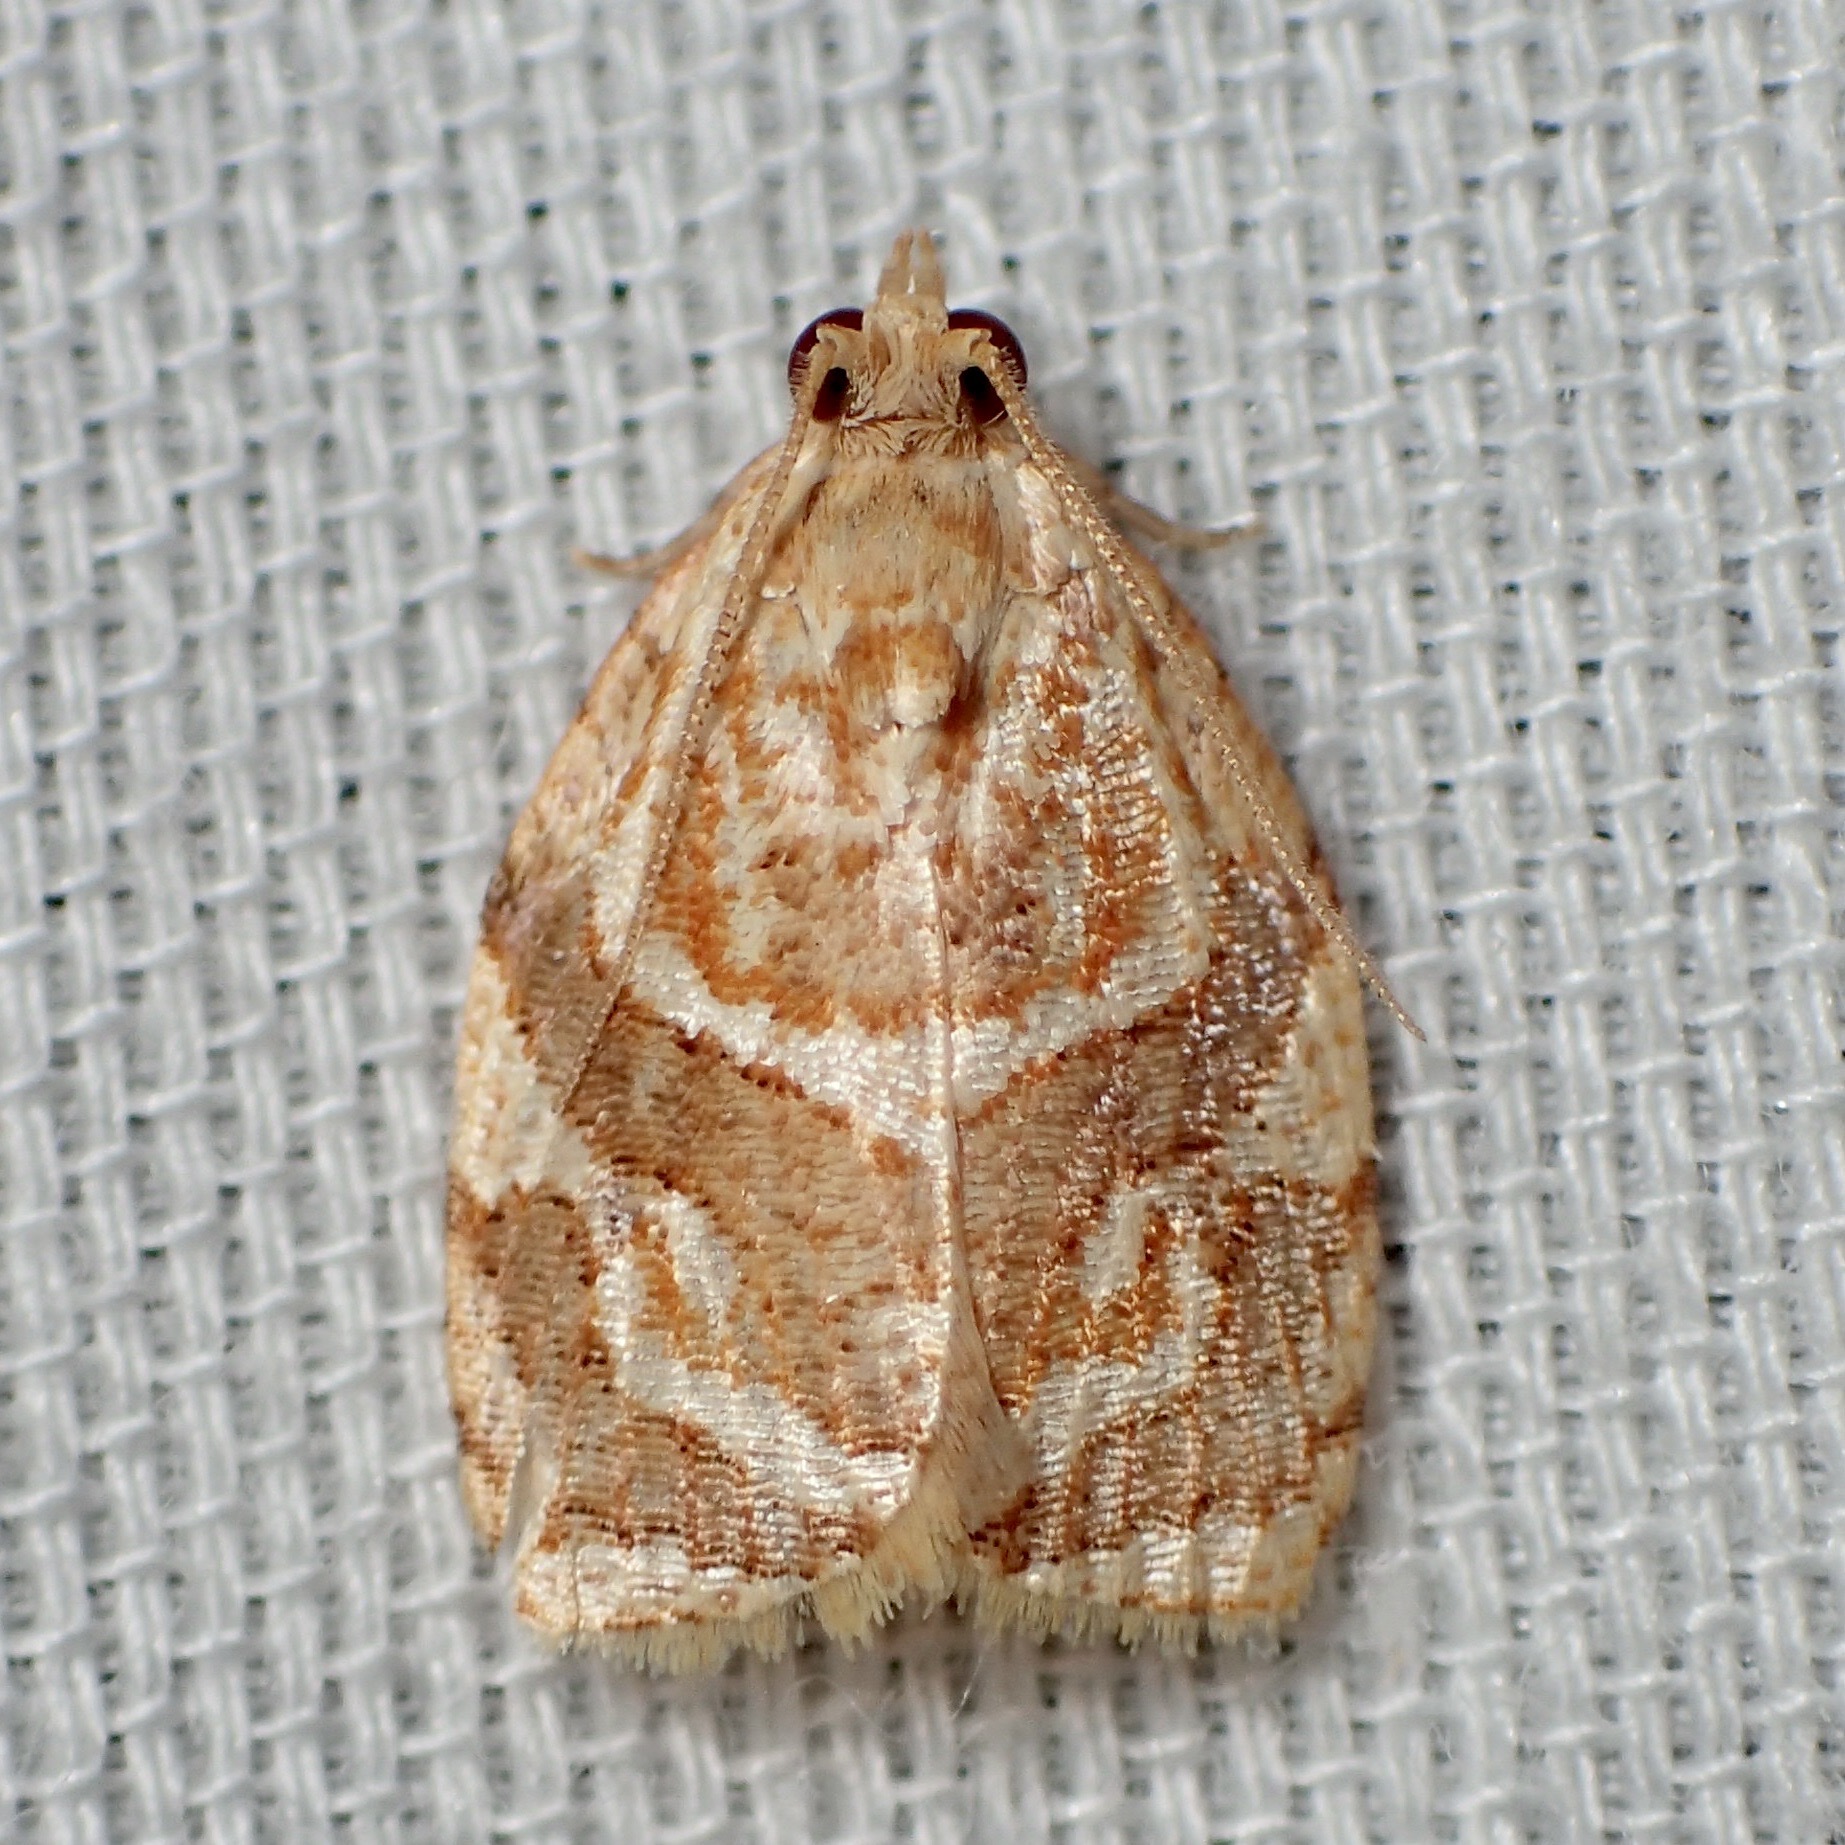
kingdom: Animalia
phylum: Arthropoda
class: Insecta
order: Lepidoptera
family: Tortricidae
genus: Adoxophyes
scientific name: Adoxophyes templana
